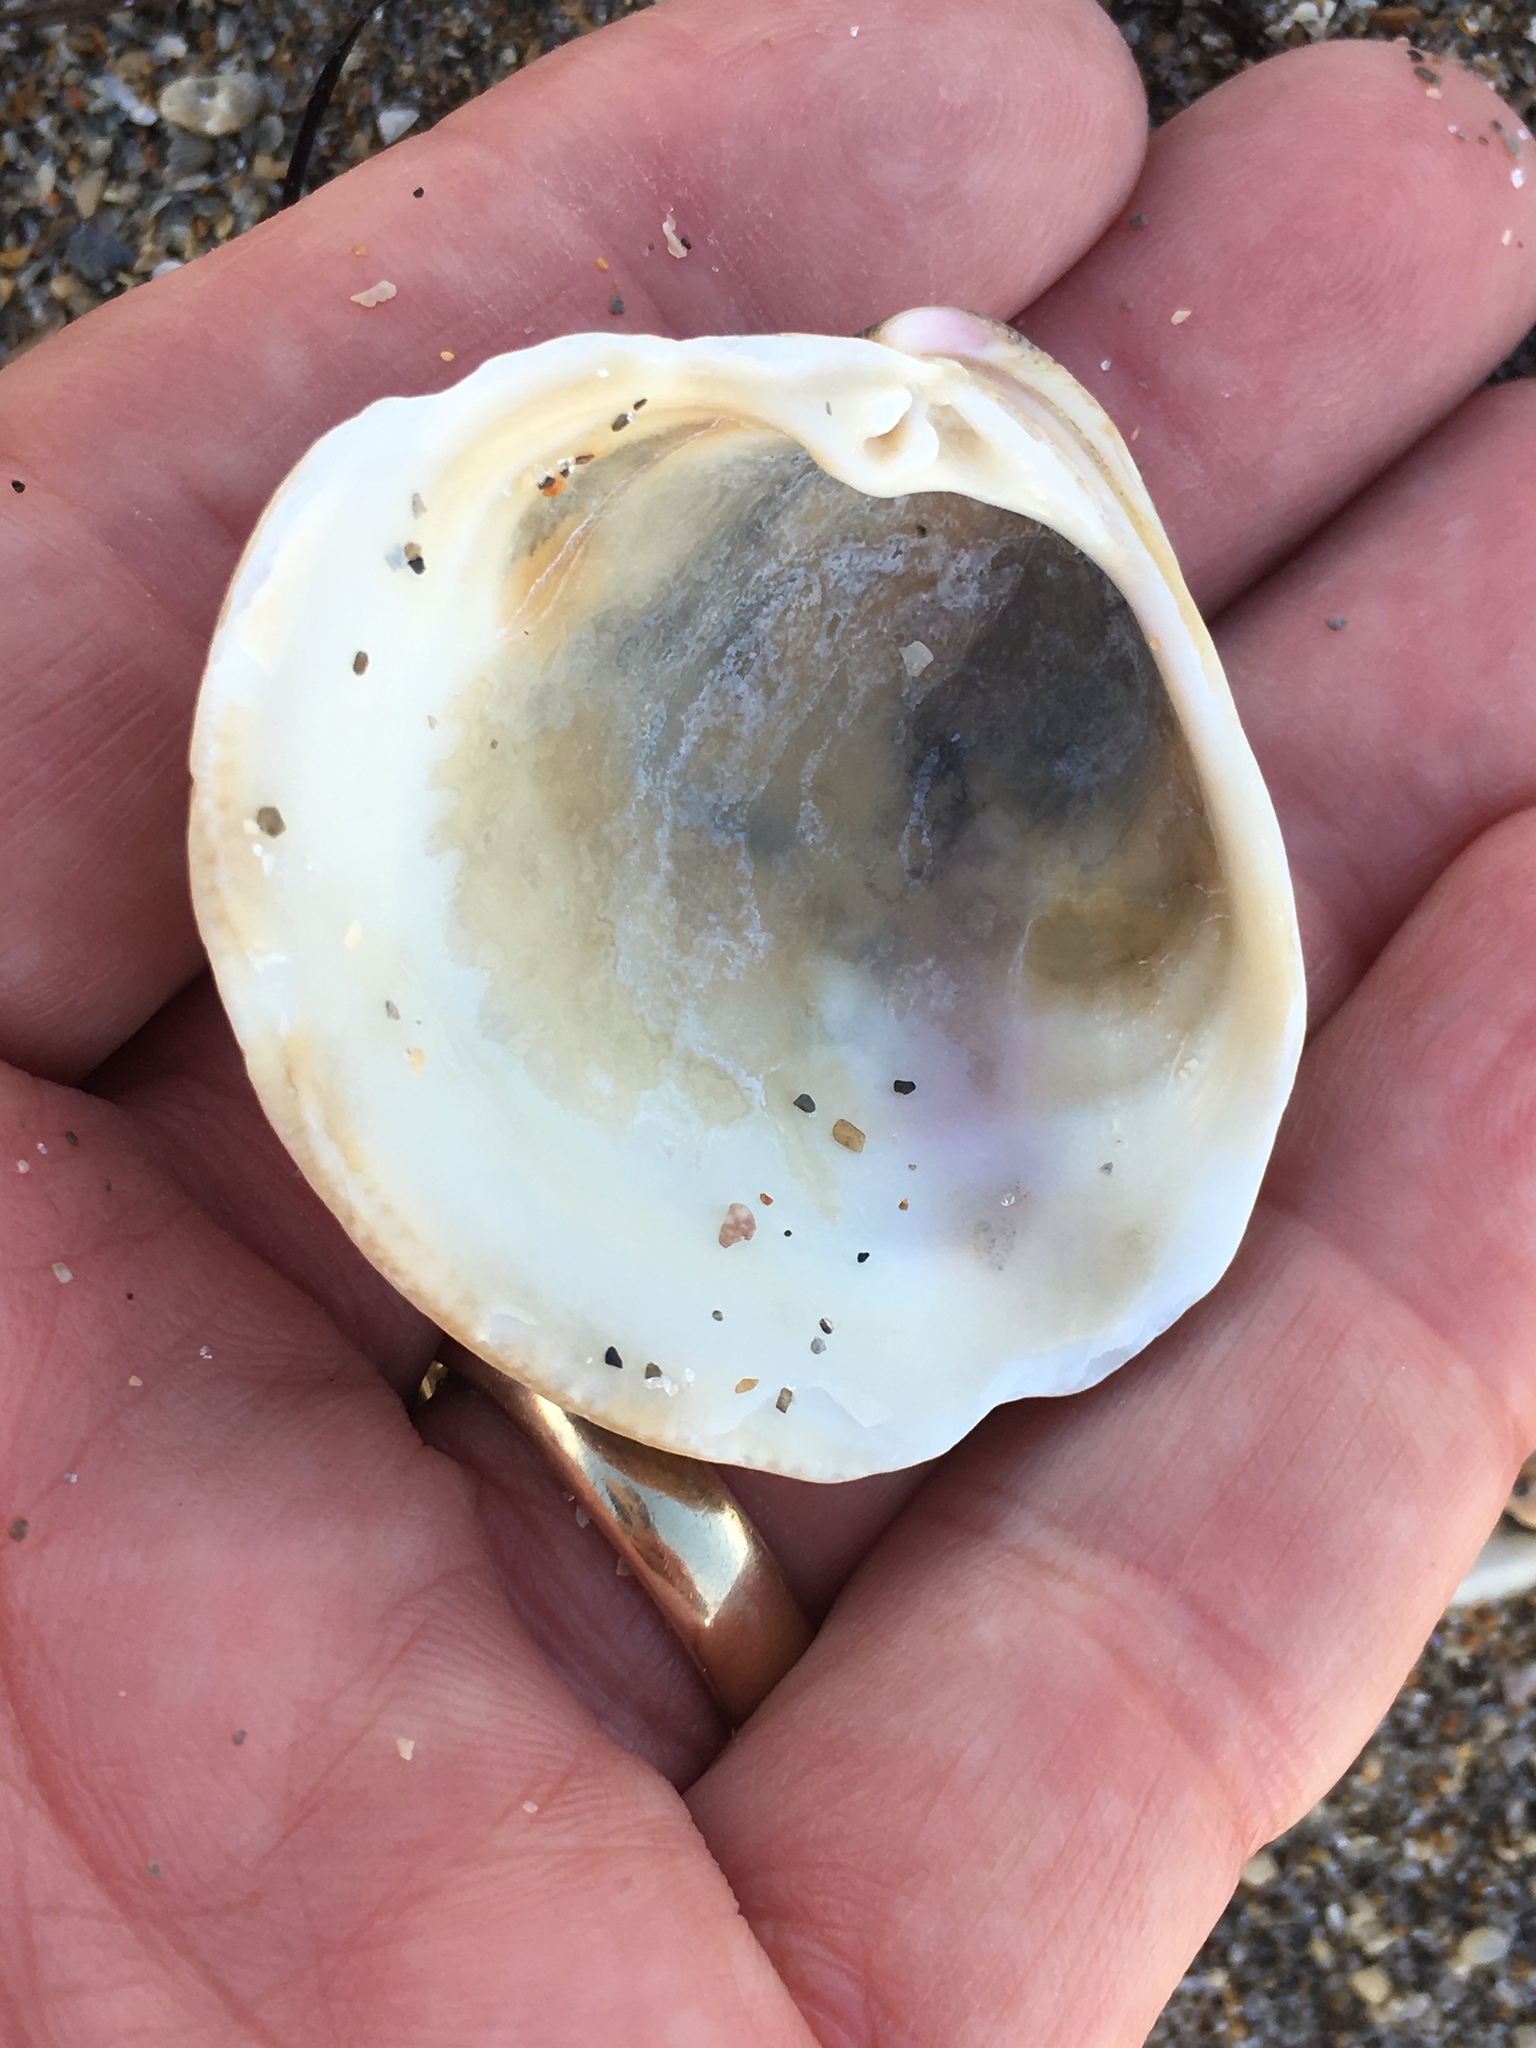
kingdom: Animalia
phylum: Mollusca
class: Bivalvia
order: Venerida
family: Veneridae
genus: Mercenaria
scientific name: Mercenaria campechiensis
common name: Südliche quahog-muschel
